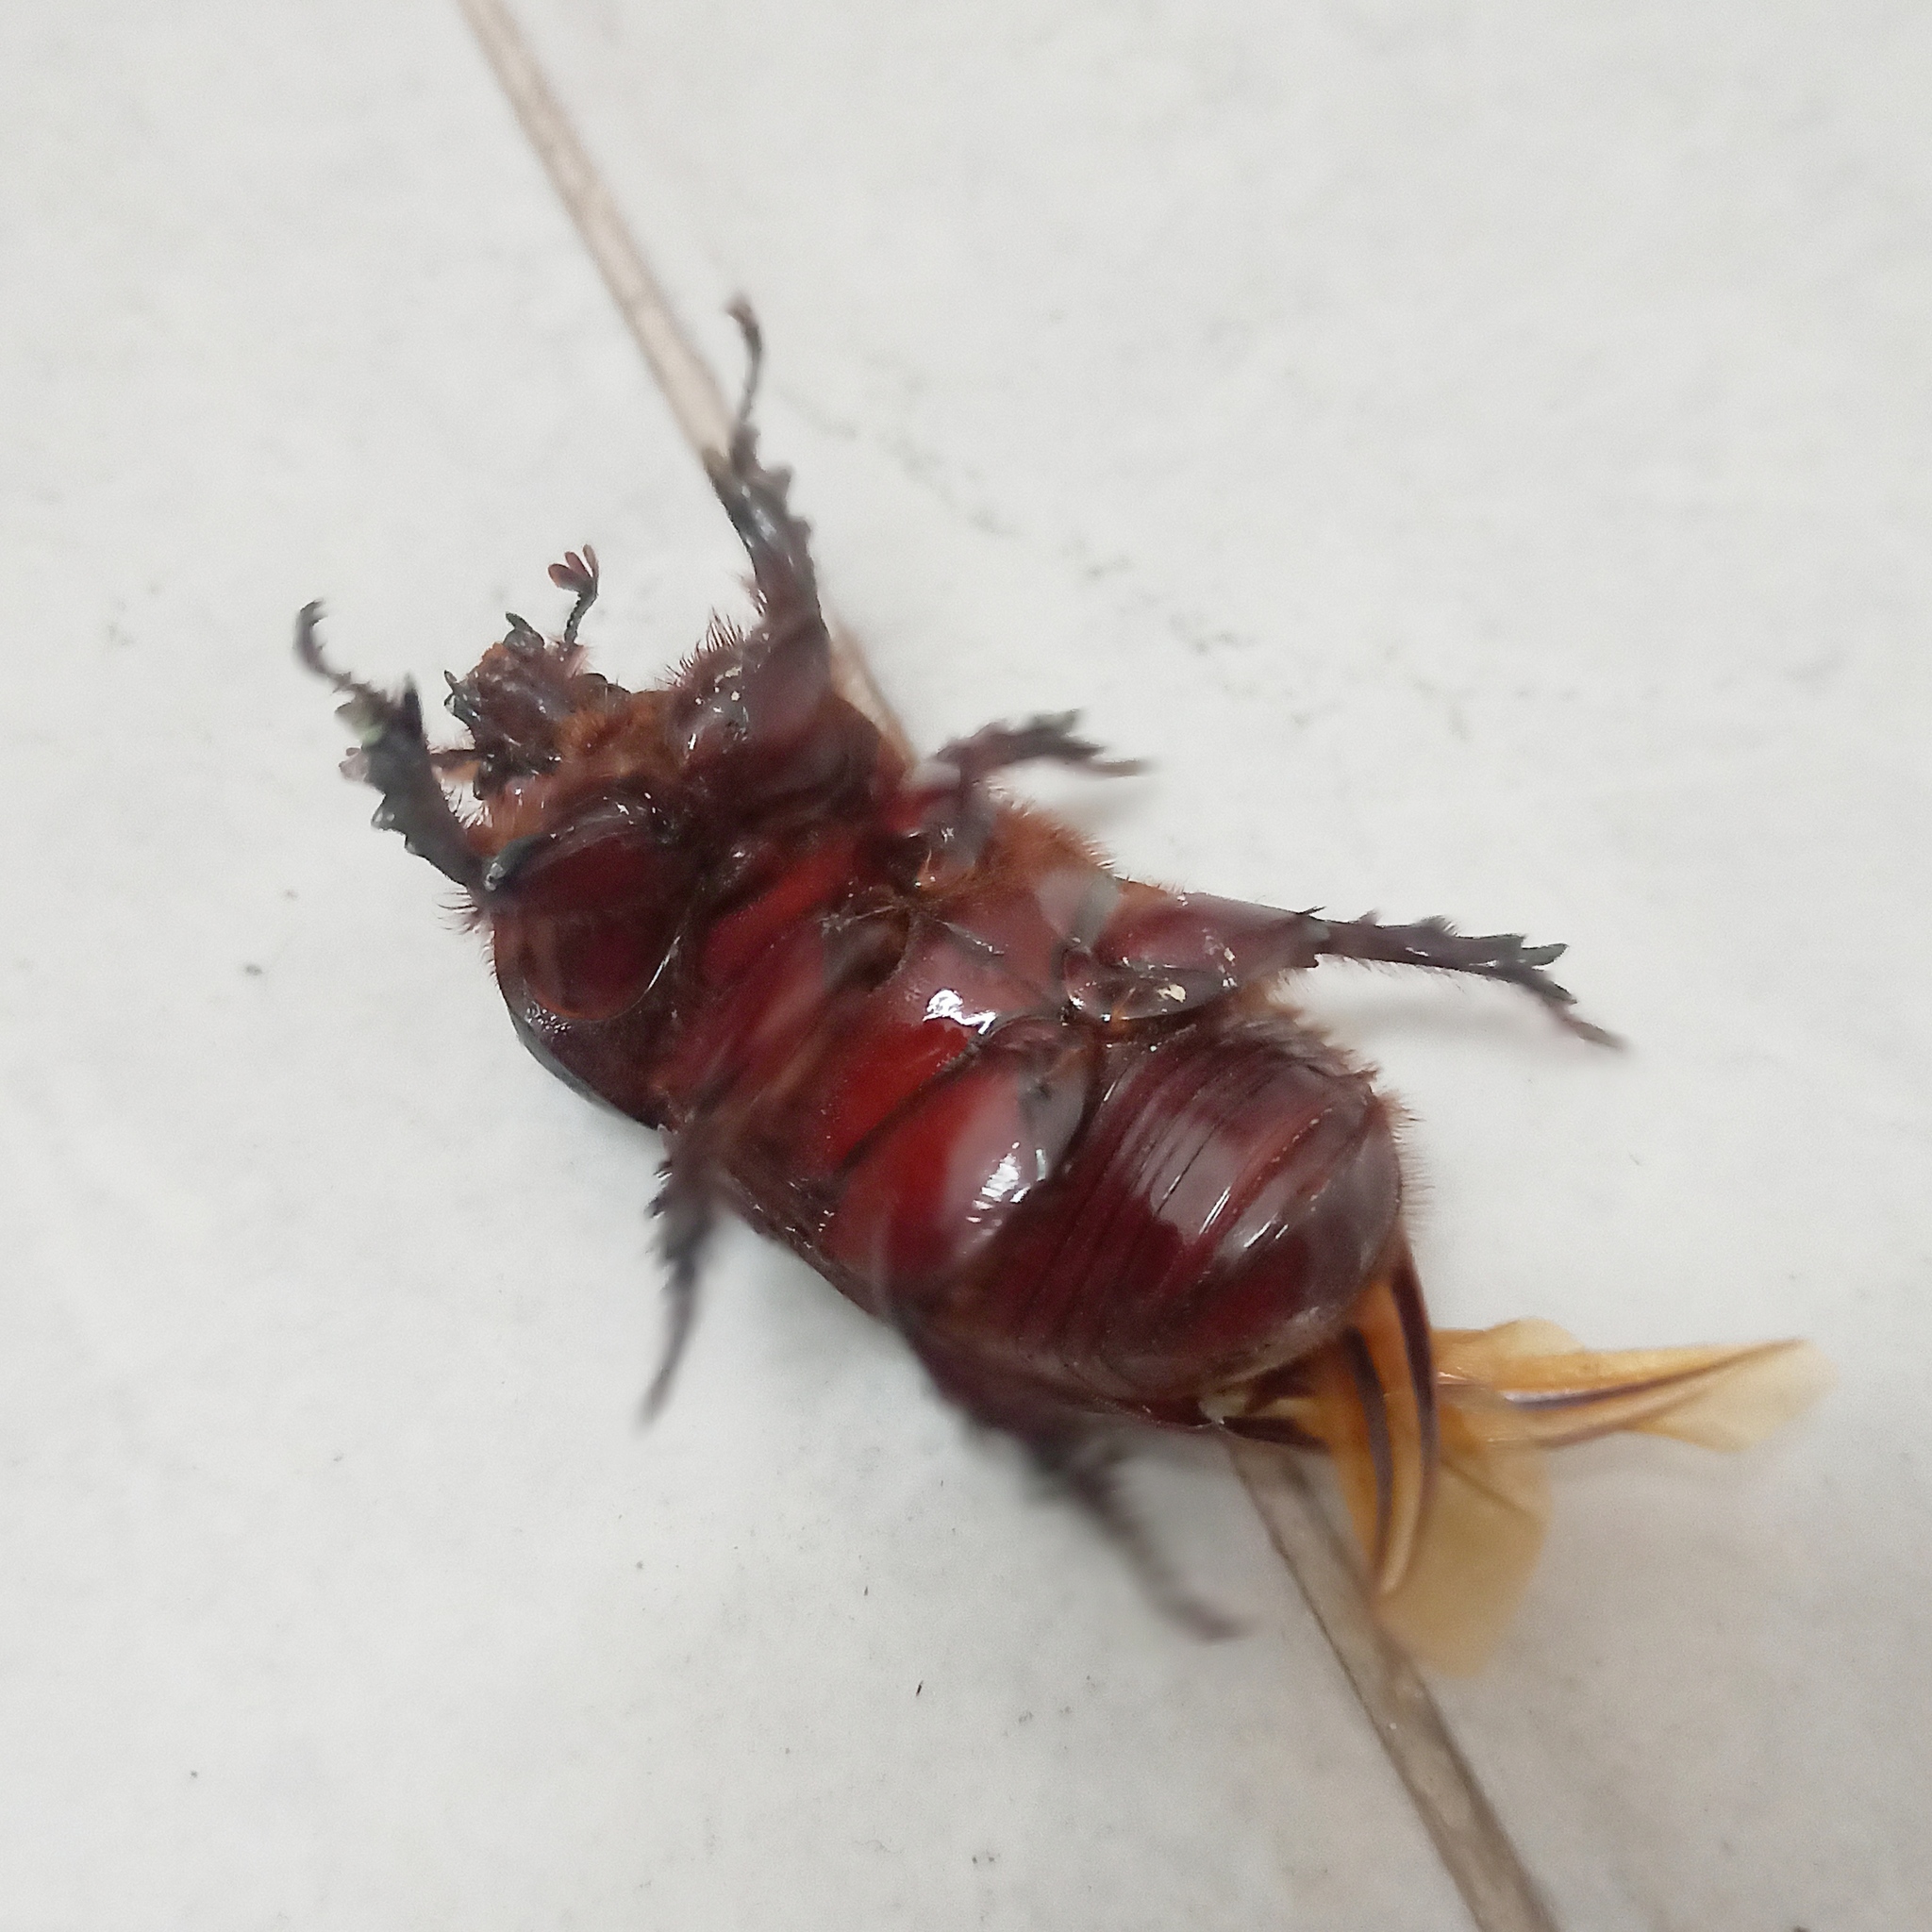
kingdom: Animalia
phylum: Arthropoda
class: Insecta
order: Coleoptera
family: Scarabaeidae
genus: Strategus
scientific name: Strategus aloeus
